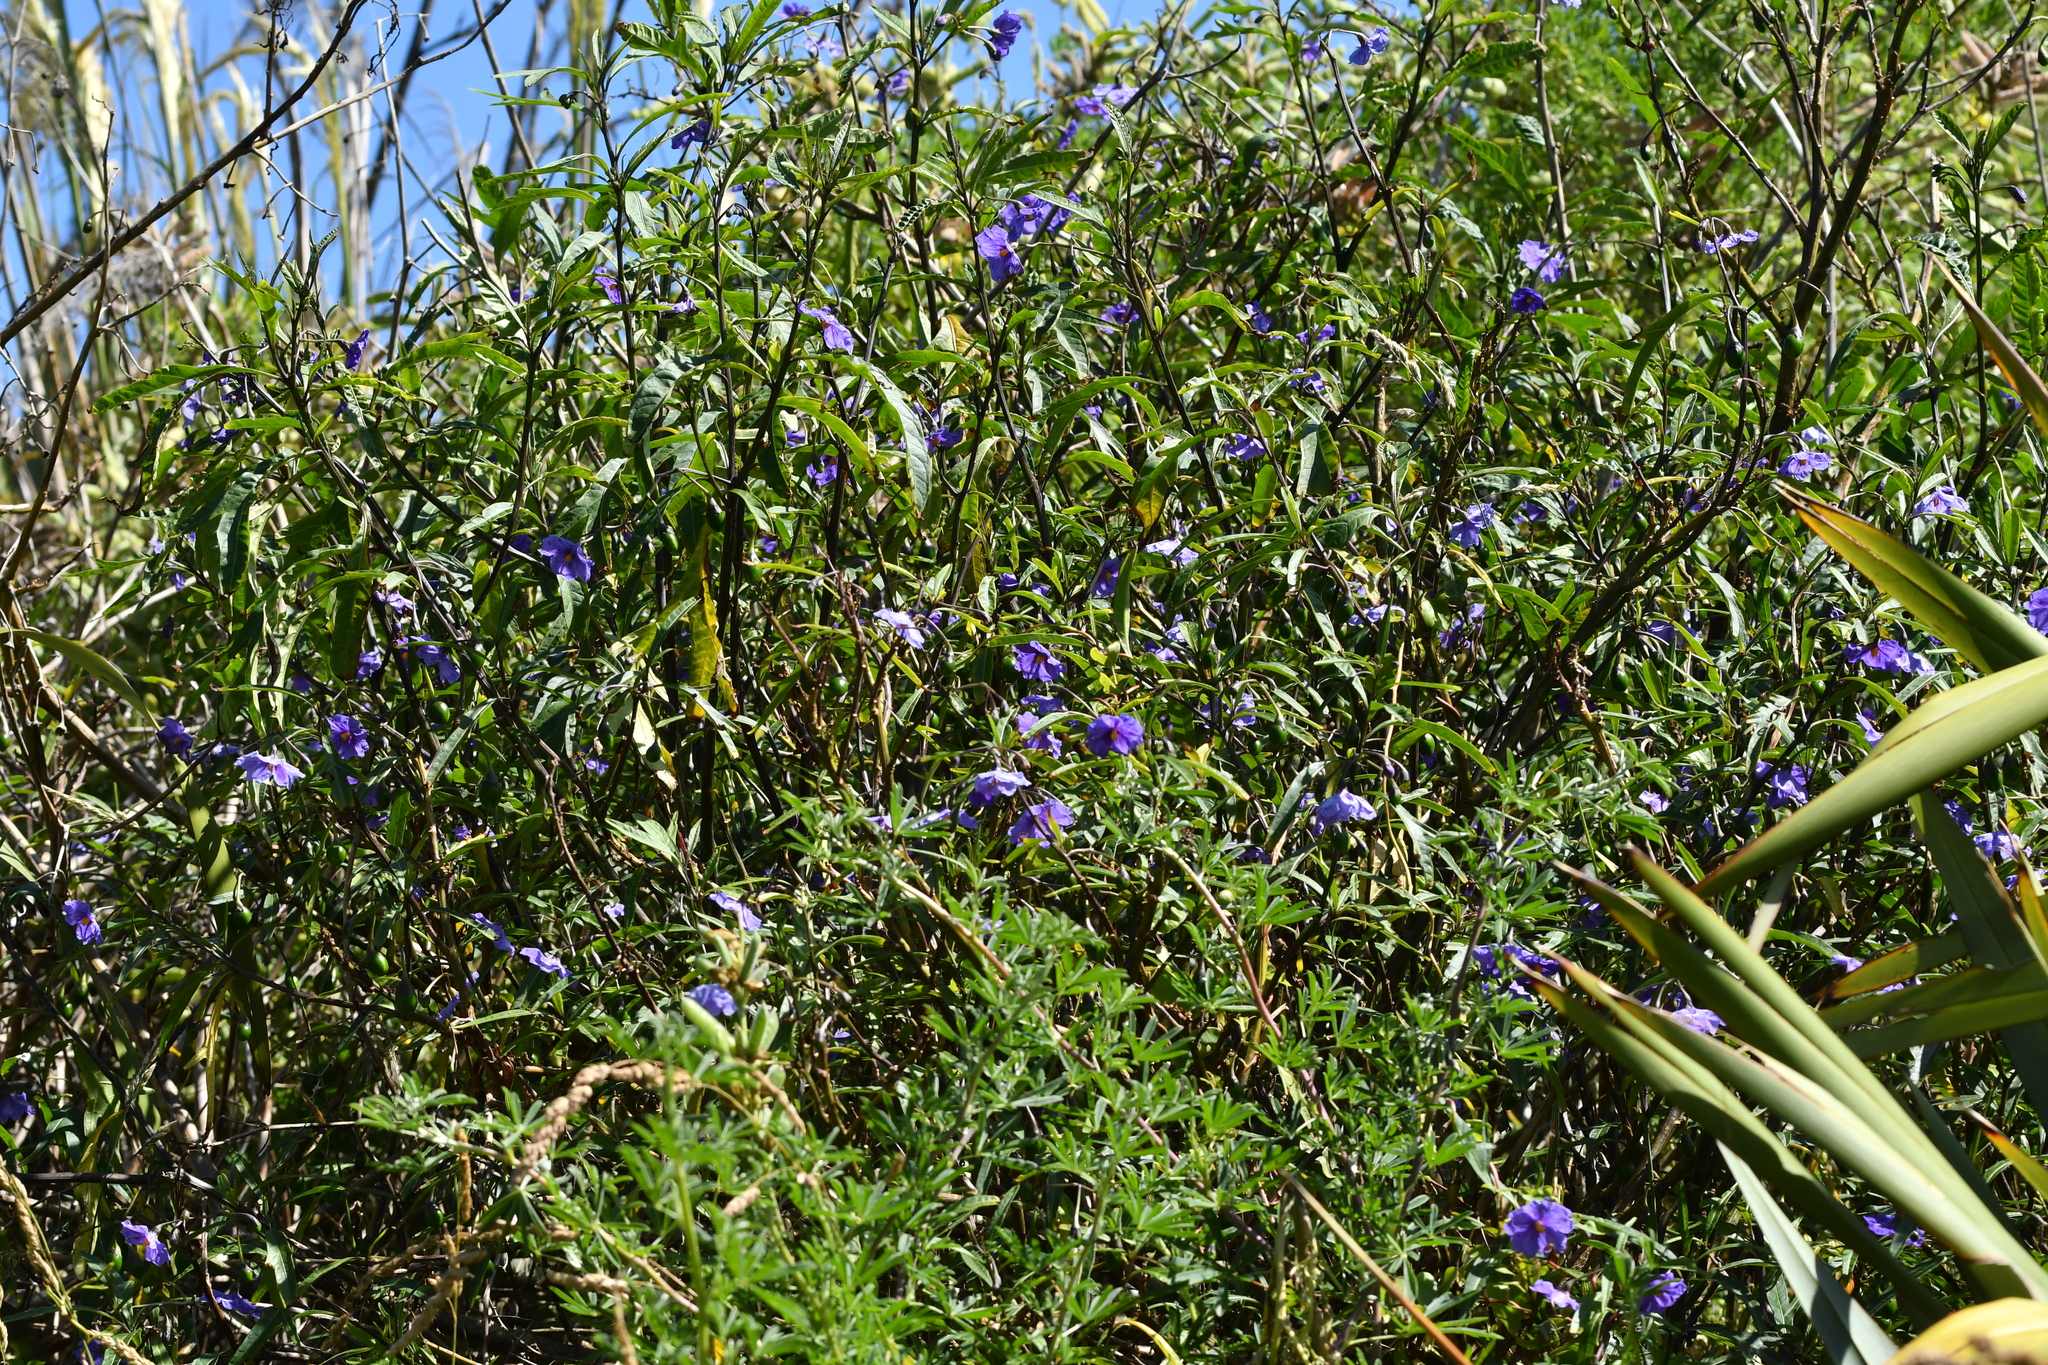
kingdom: Plantae
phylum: Tracheophyta
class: Magnoliopsida
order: Solanales
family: Solanaceae
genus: Solanum
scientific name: Solanum laciniatum
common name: Kangaroo-apple
